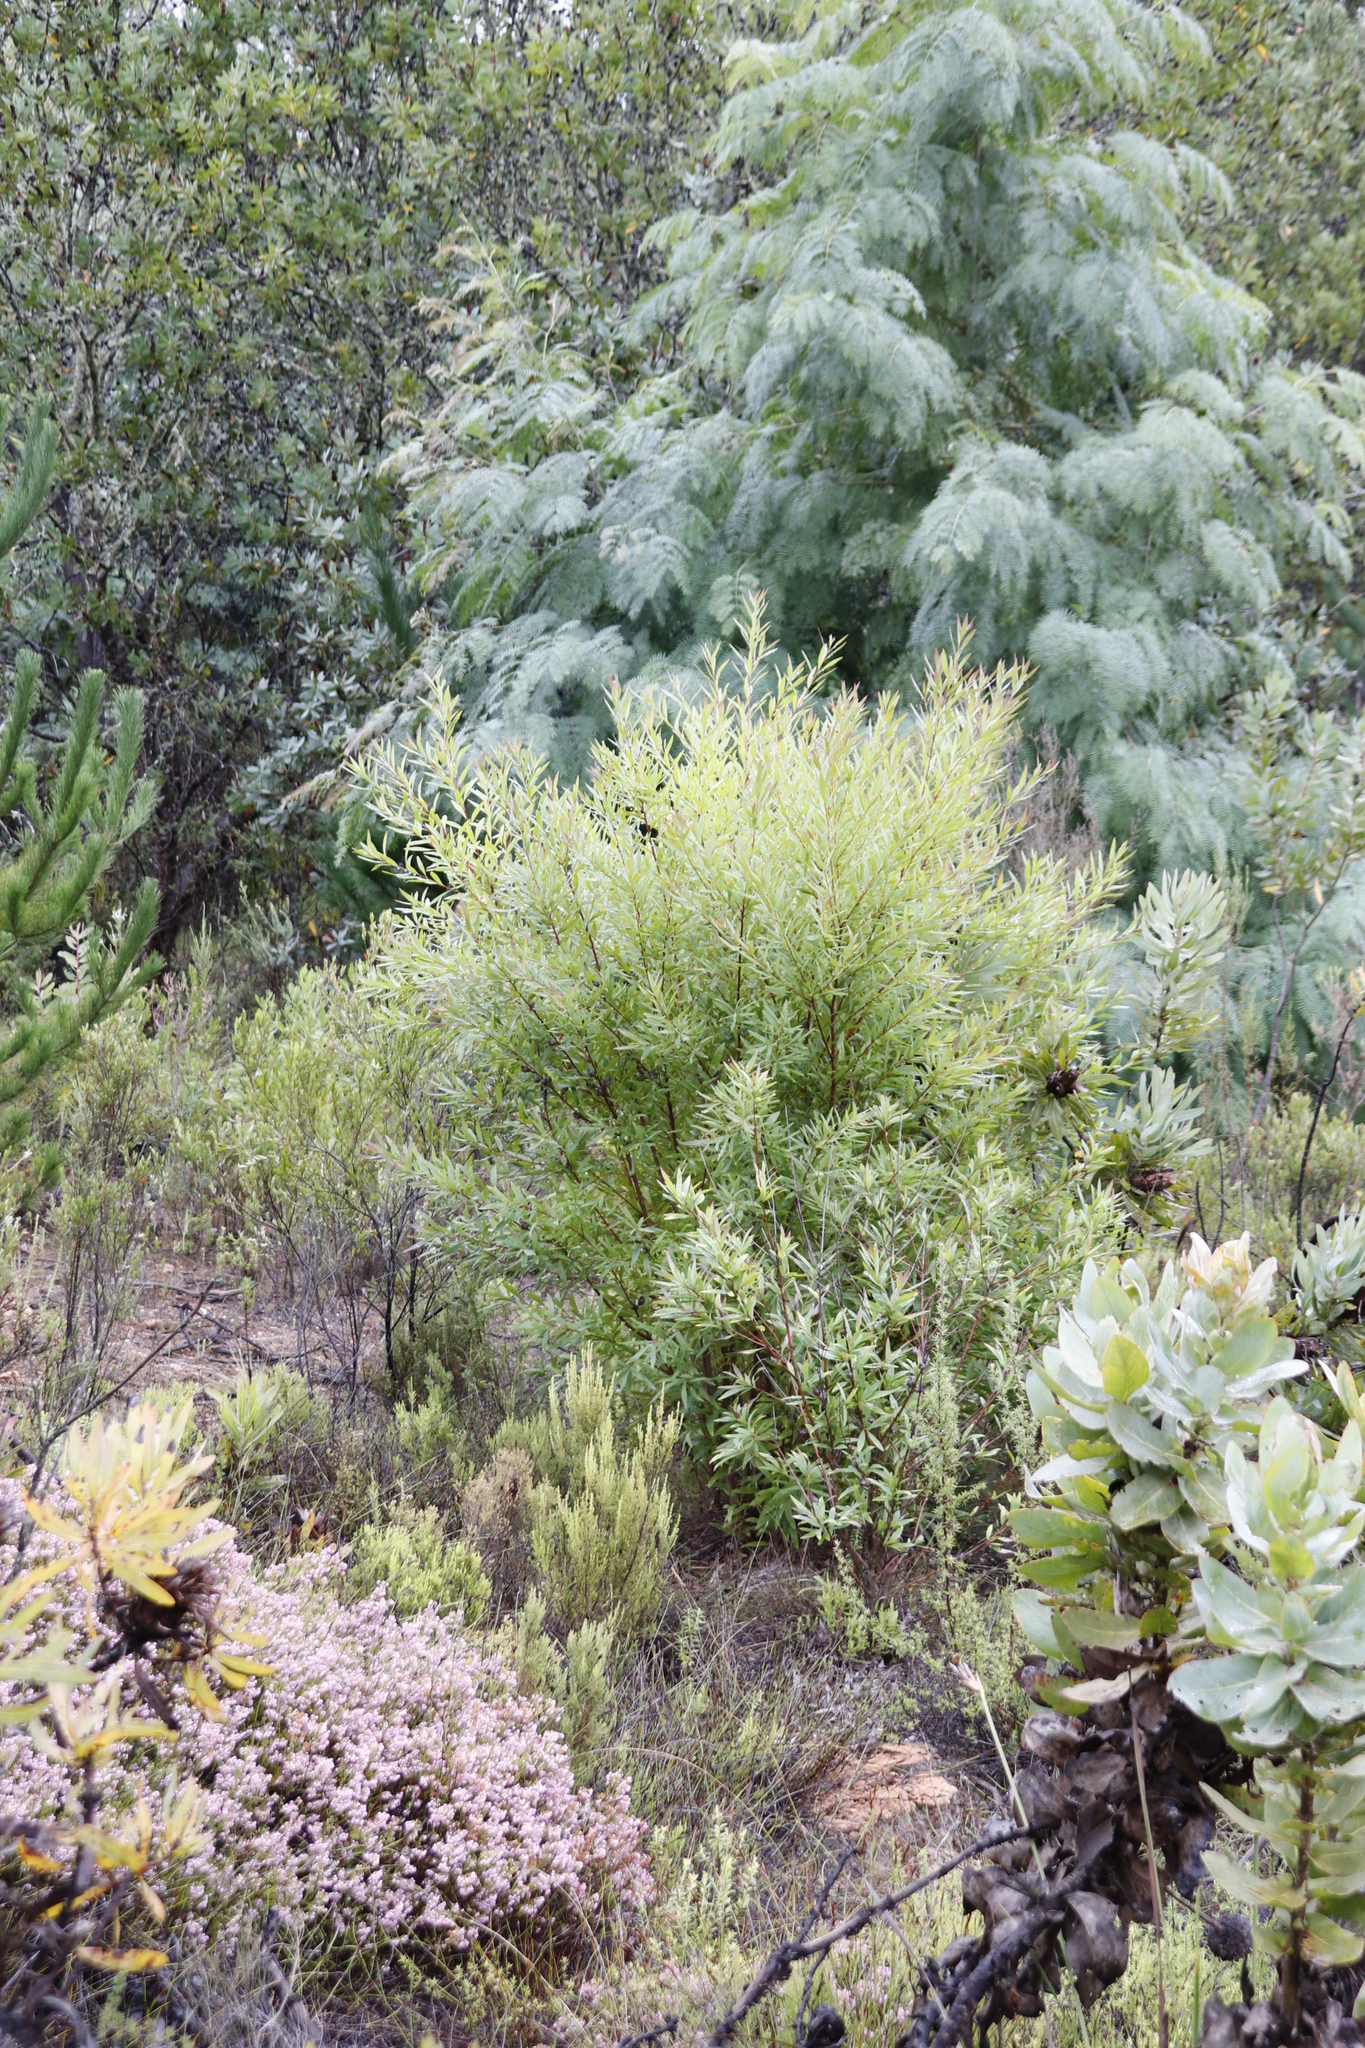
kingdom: Plantae
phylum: Tracheophyta
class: Magnoliopsida
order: Proteales
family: Proteaceae
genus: Hakea
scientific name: Hakea salicifolia
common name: Willow hakea
